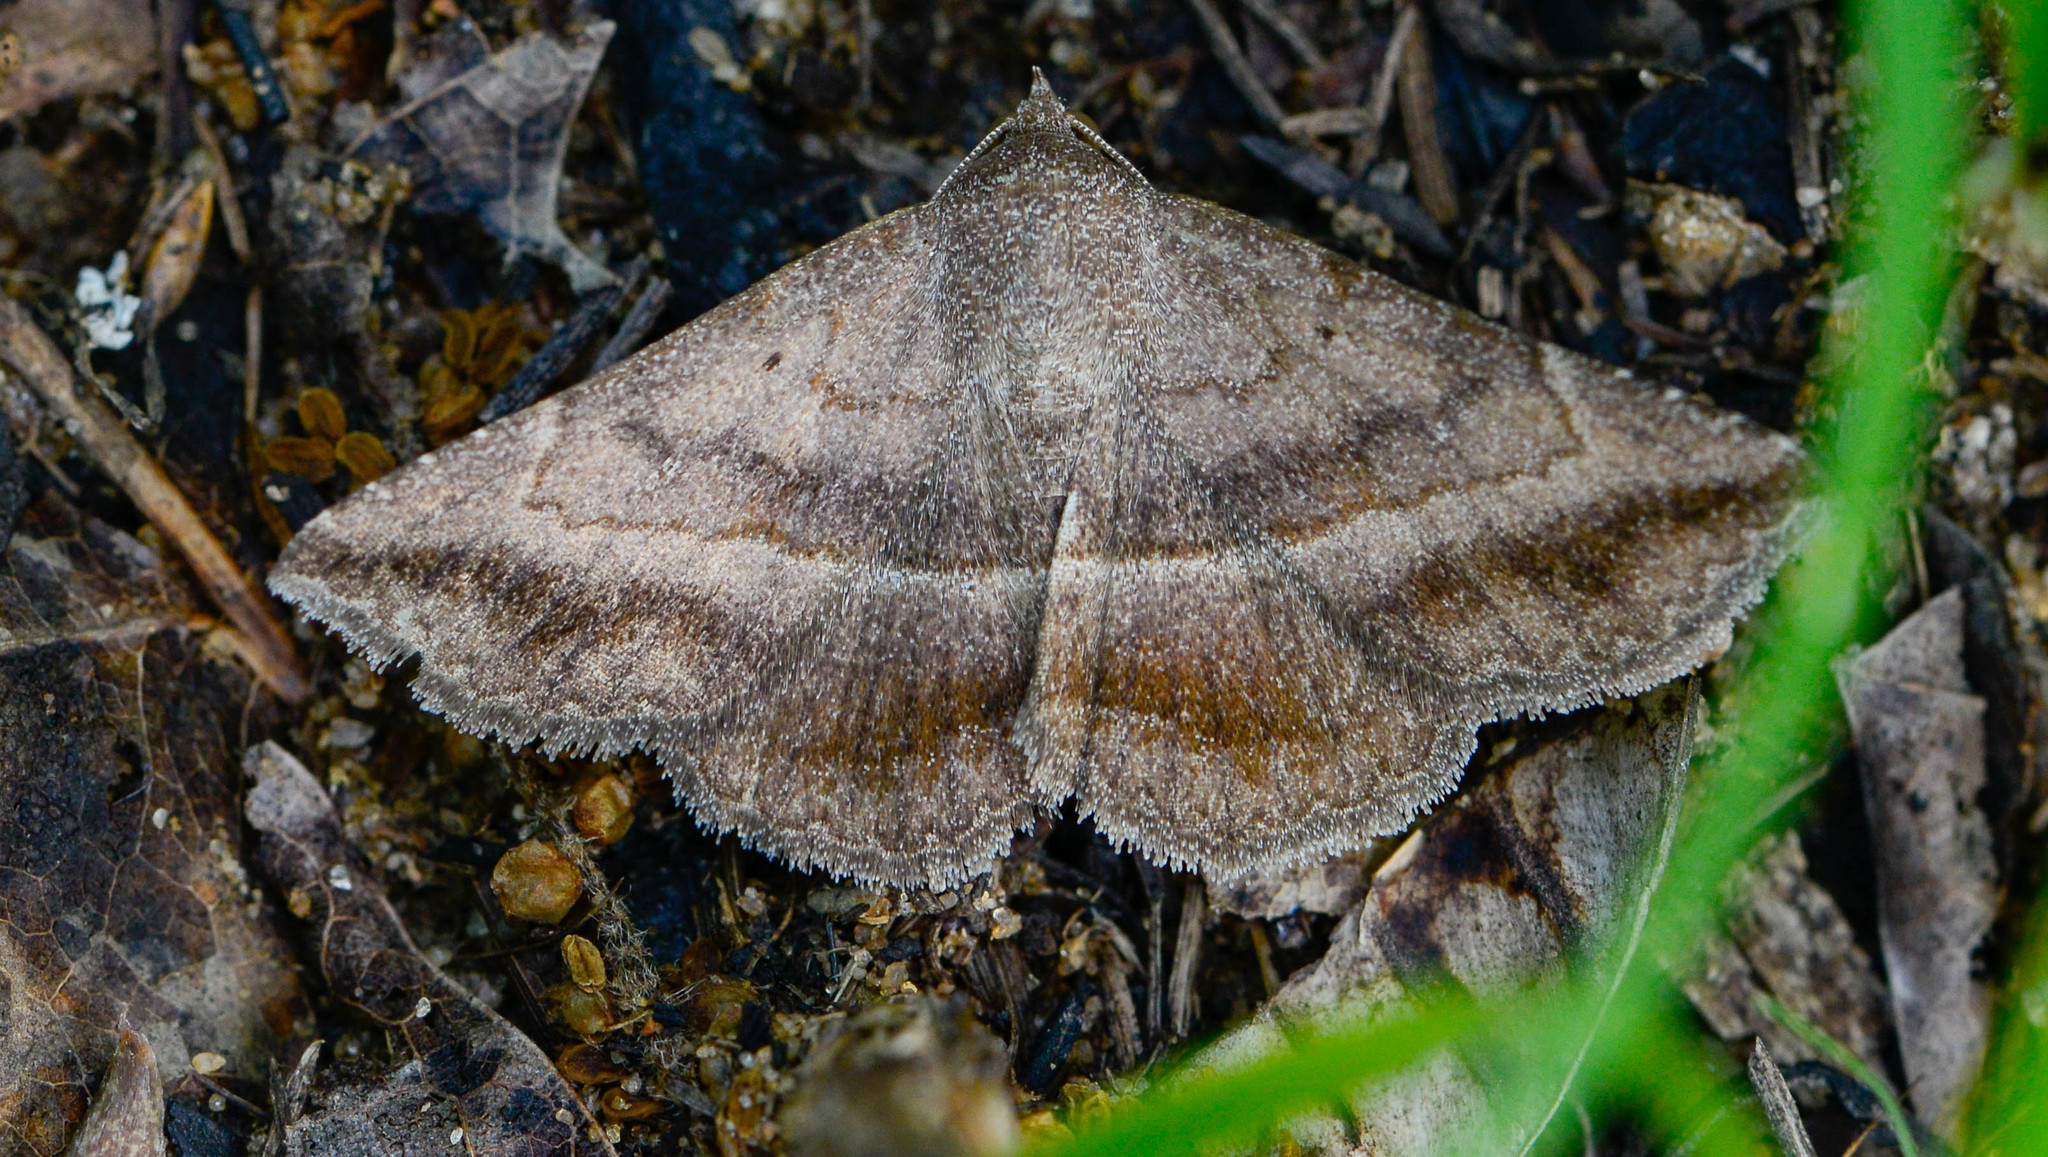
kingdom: Animalia
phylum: Arthropoda
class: Insecta
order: Lepidoptera
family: Erebidae
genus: Lesmone
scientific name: Lesmone detrahens
